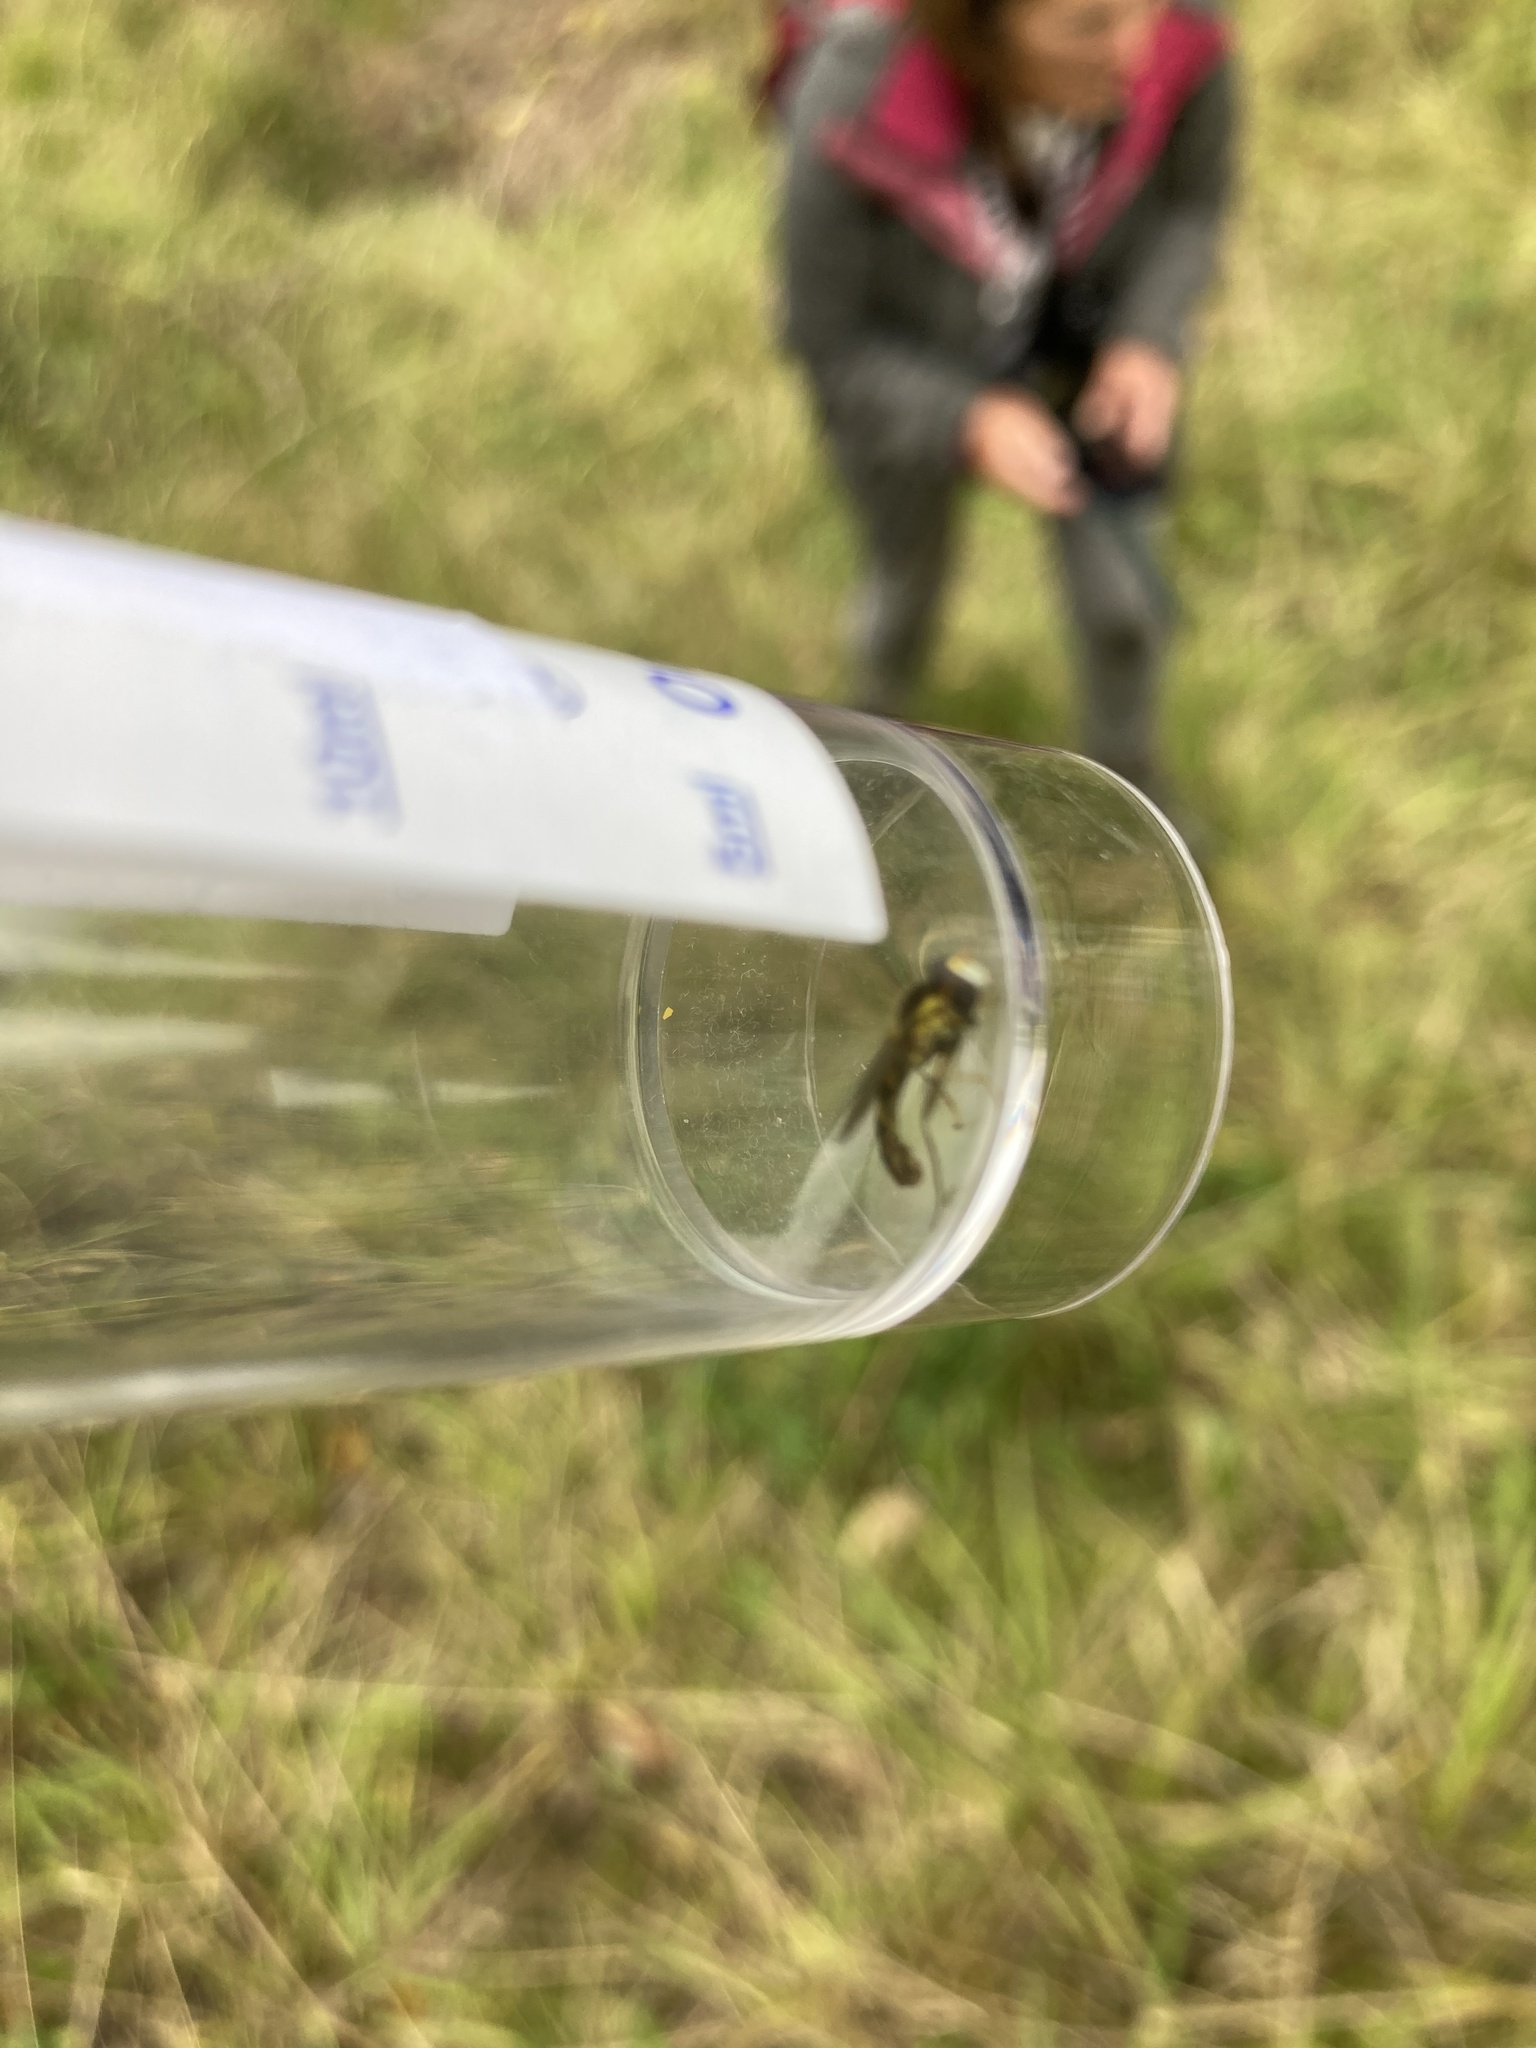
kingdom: Animalia
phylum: Arthropoda
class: Insecta
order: Diptera
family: Syrphidae
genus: Sphaerophoria
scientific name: Sphaerophoria scripta
